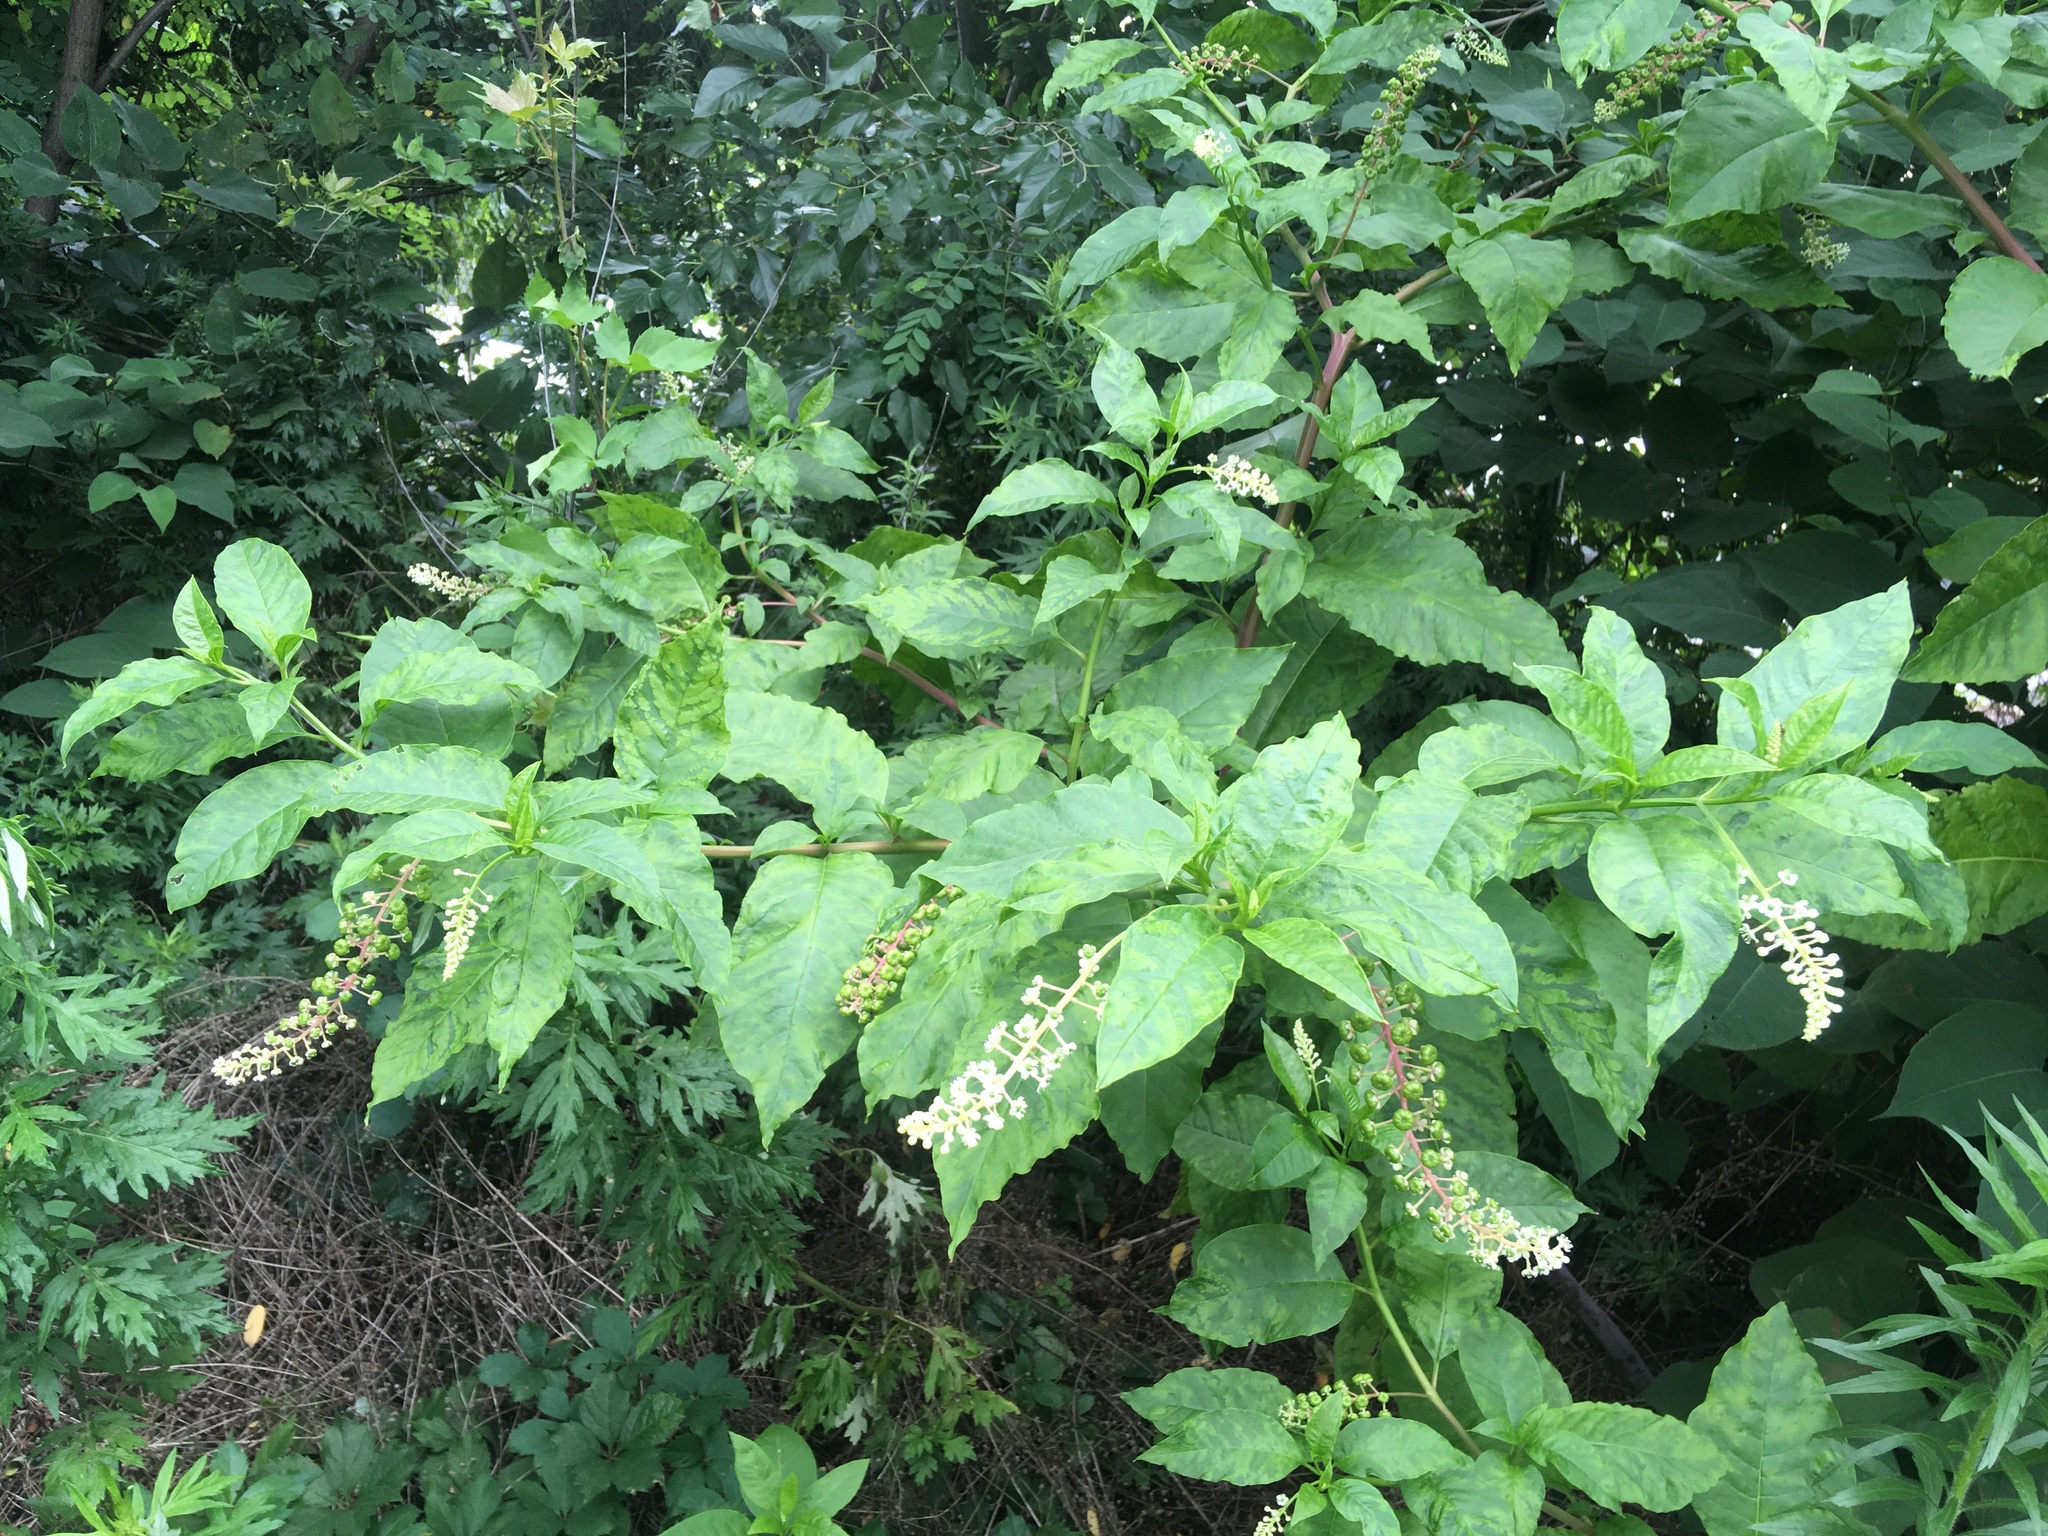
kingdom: Plantae
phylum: Tracheophyta
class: Magnoliopsida
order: Caryophyllales
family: Phytolaccaceae
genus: Phytolacca
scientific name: Phytolacca americana
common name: American pokeweed
